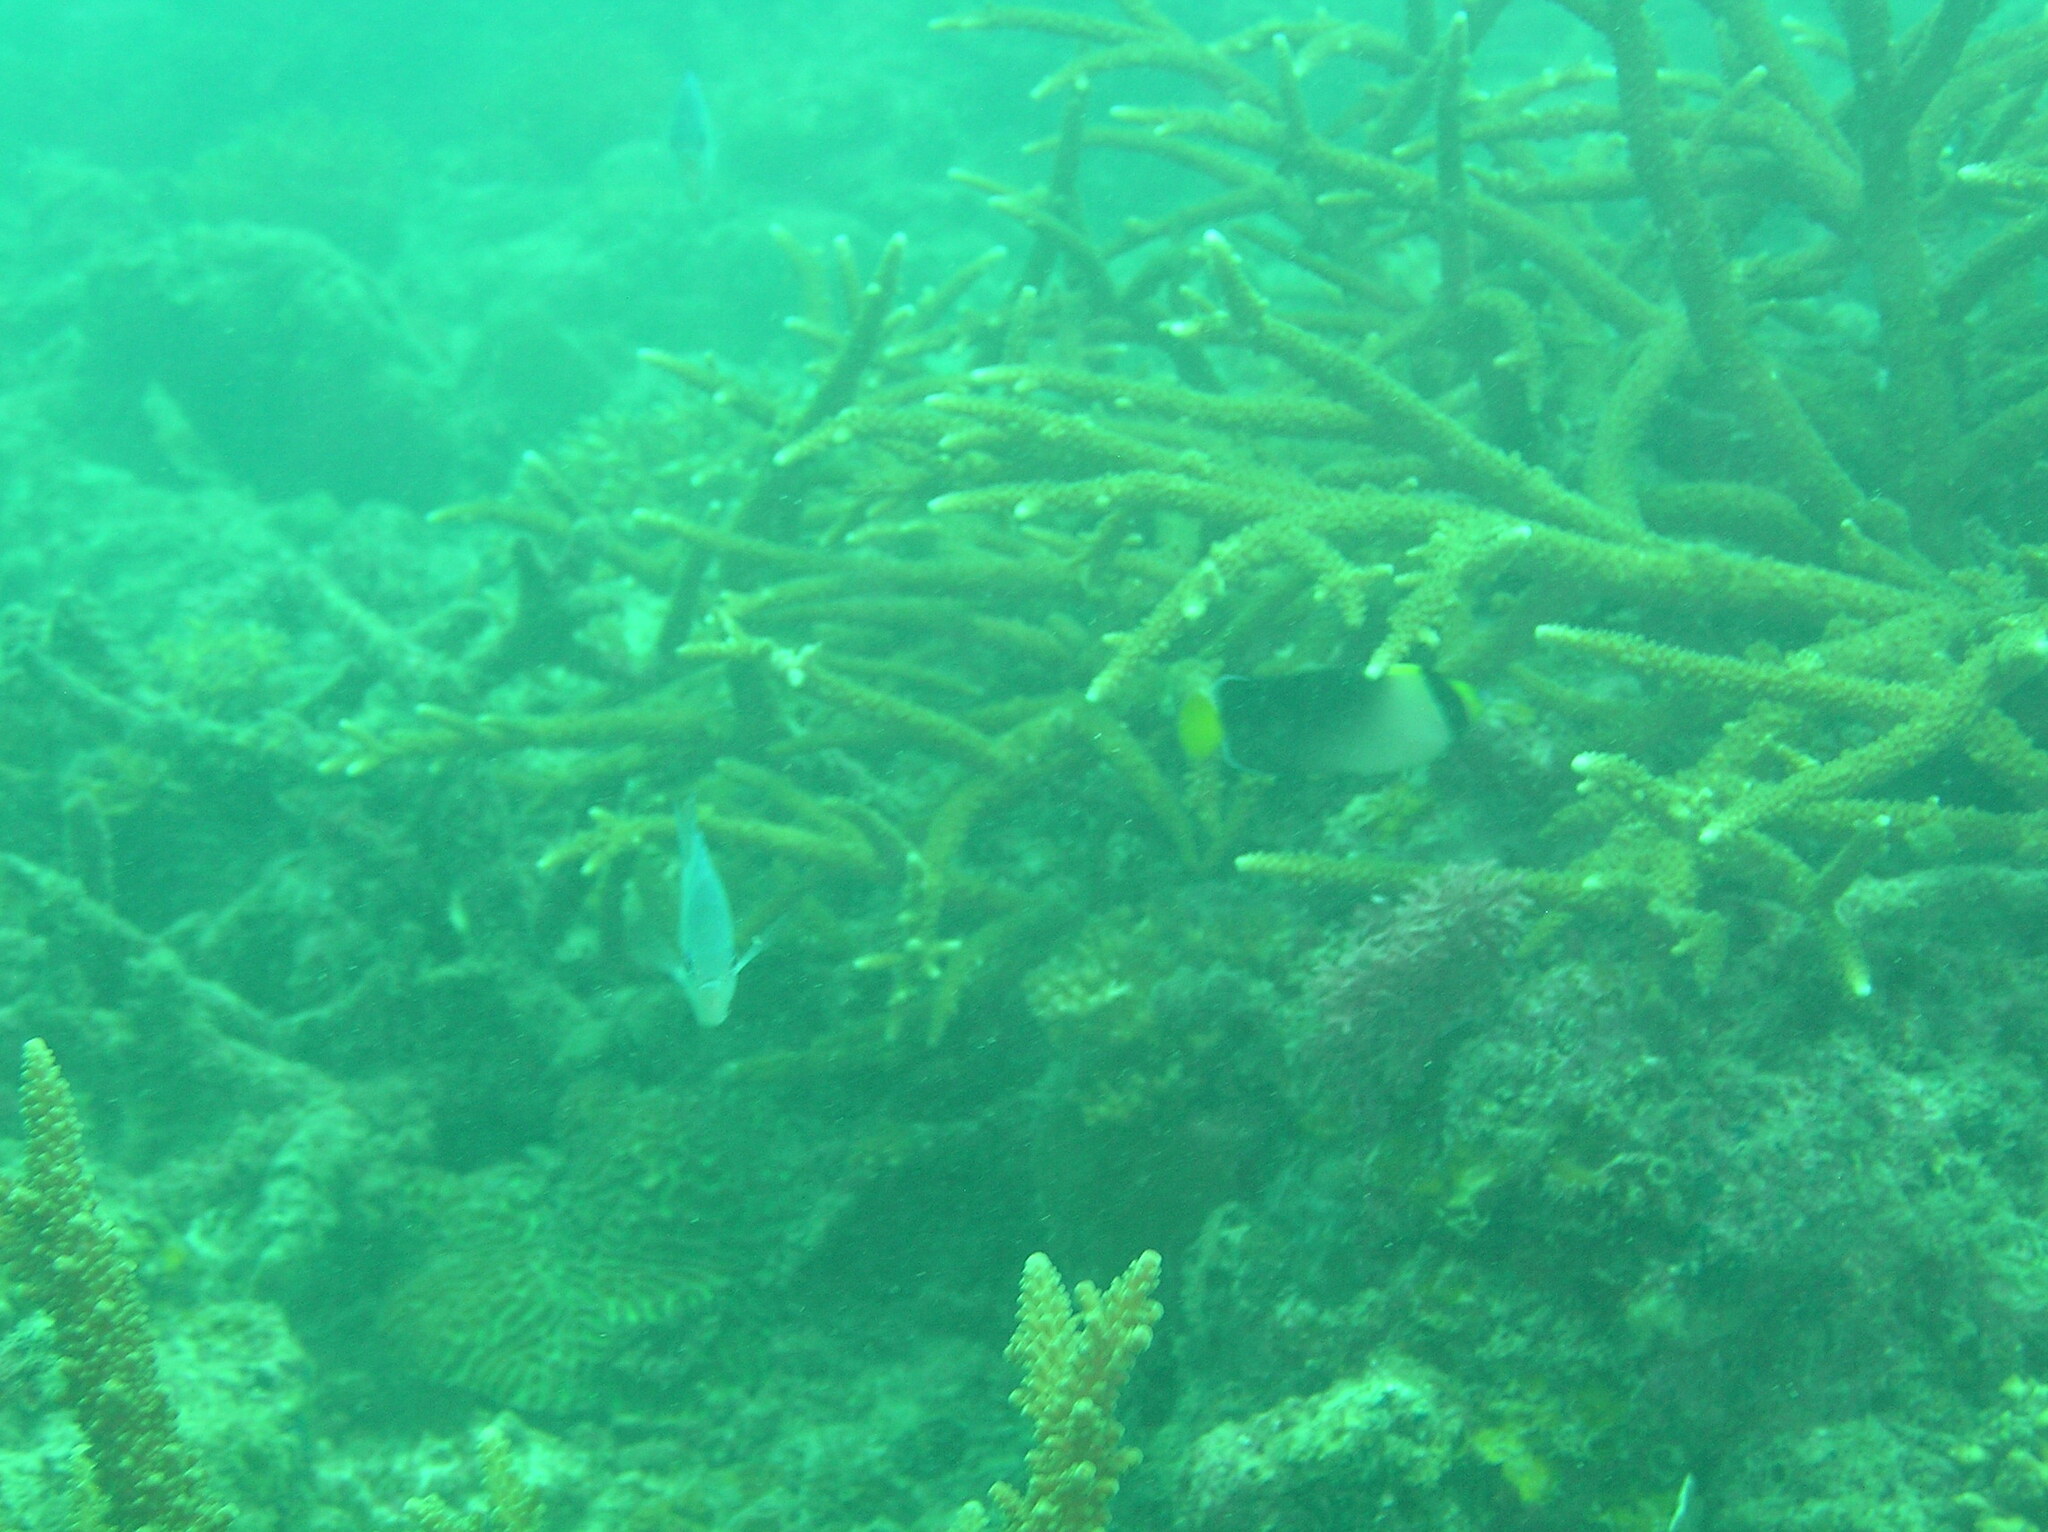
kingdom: Animalia
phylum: Chordata
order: Perciformes
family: Pomacanthidae
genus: Chaetodontoplus
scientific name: Chaetodontoplus mesoleucus
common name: Vermiculated angelfish
